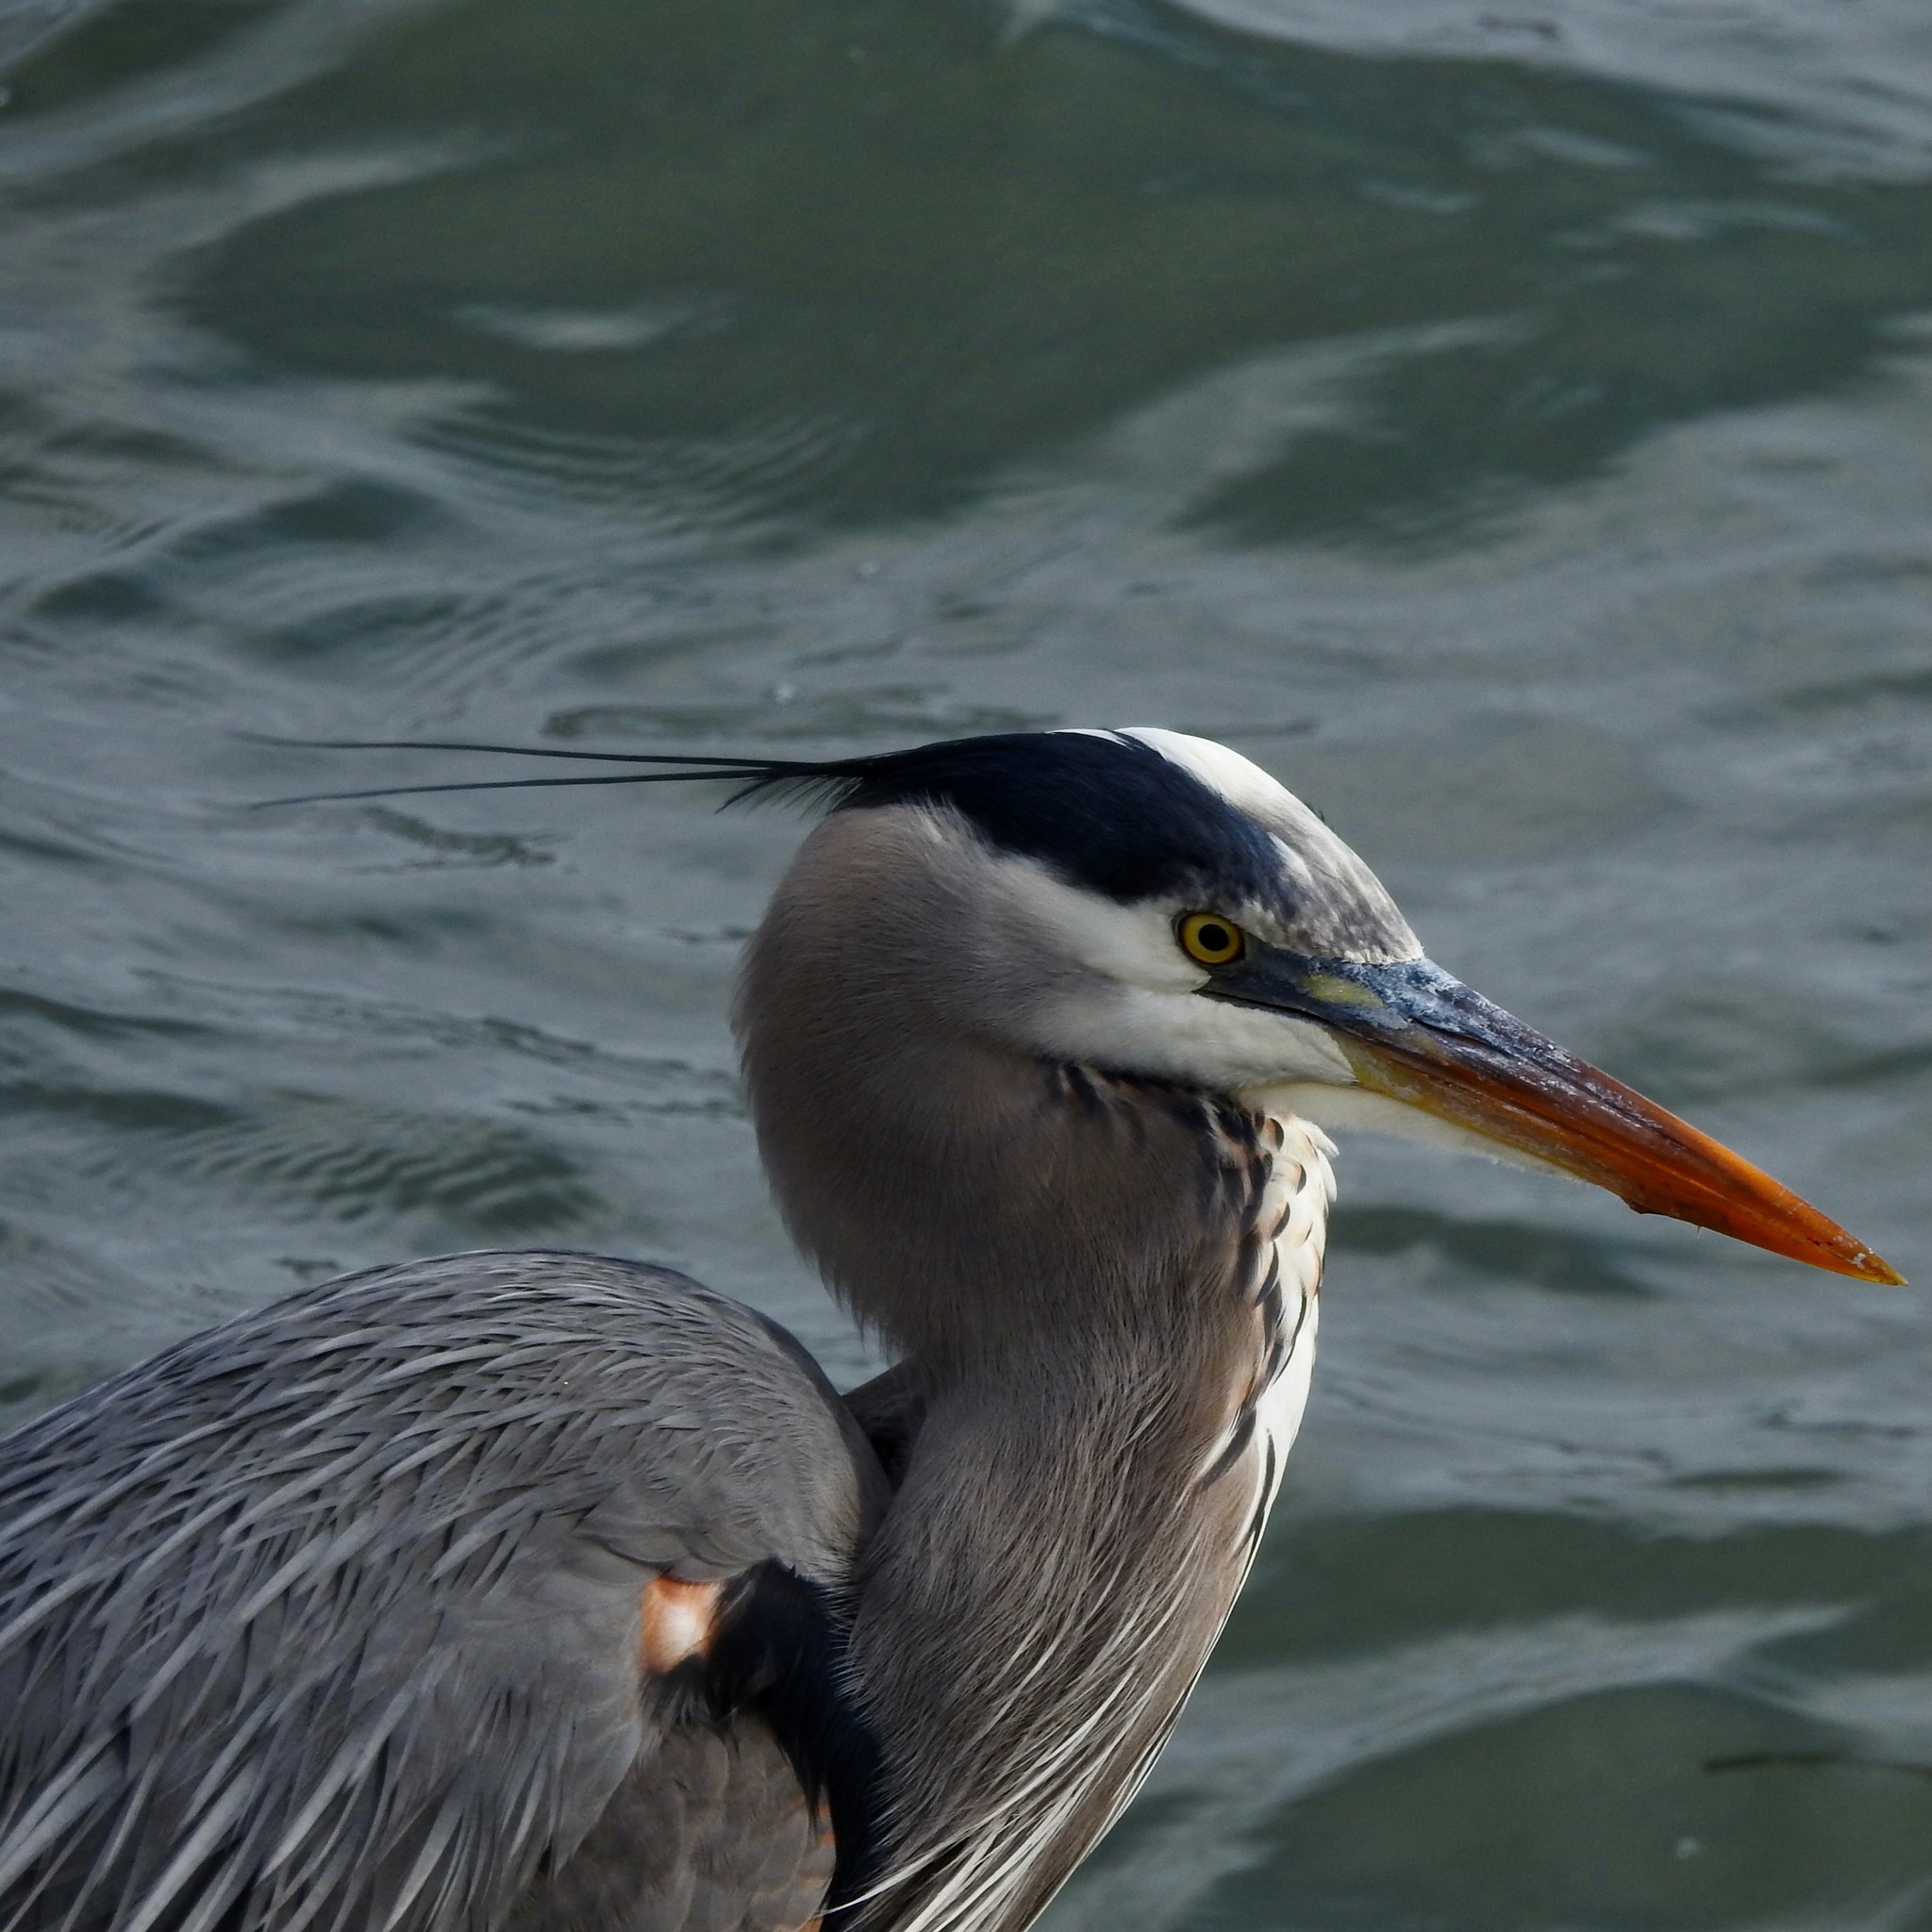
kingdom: Animalia
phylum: Chordata
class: Aves
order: Pelecaniformes
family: Ardeidae
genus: Ardea
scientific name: Ardea herodias
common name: Great blue heron
